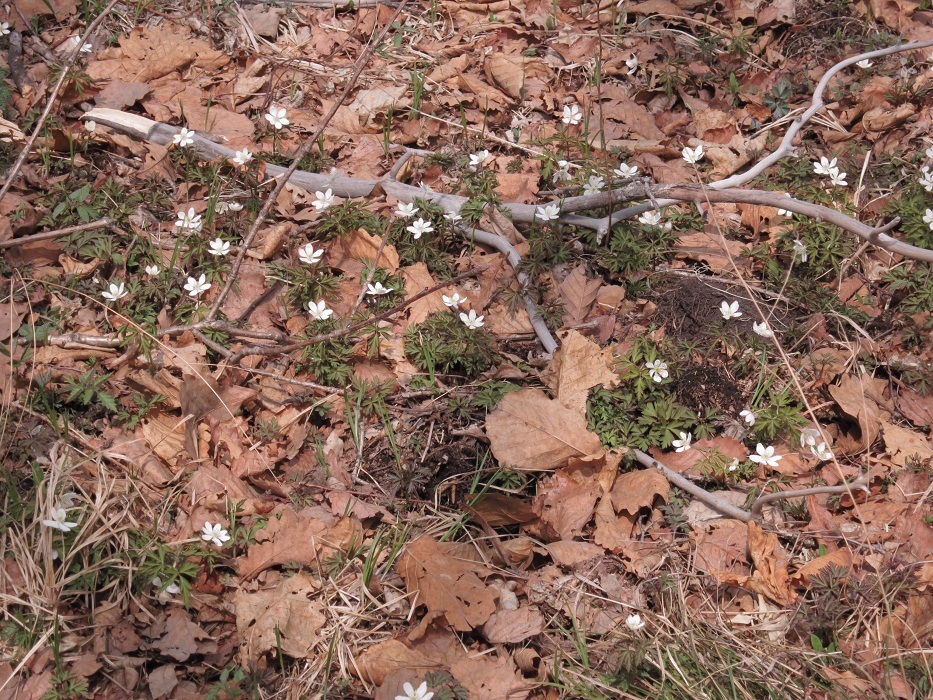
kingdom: Plantae
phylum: Tracheophyta
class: Magnoliopsida
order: Ranunculales
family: Ranunculaceae
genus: Anemone
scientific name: Anemone amurensis
